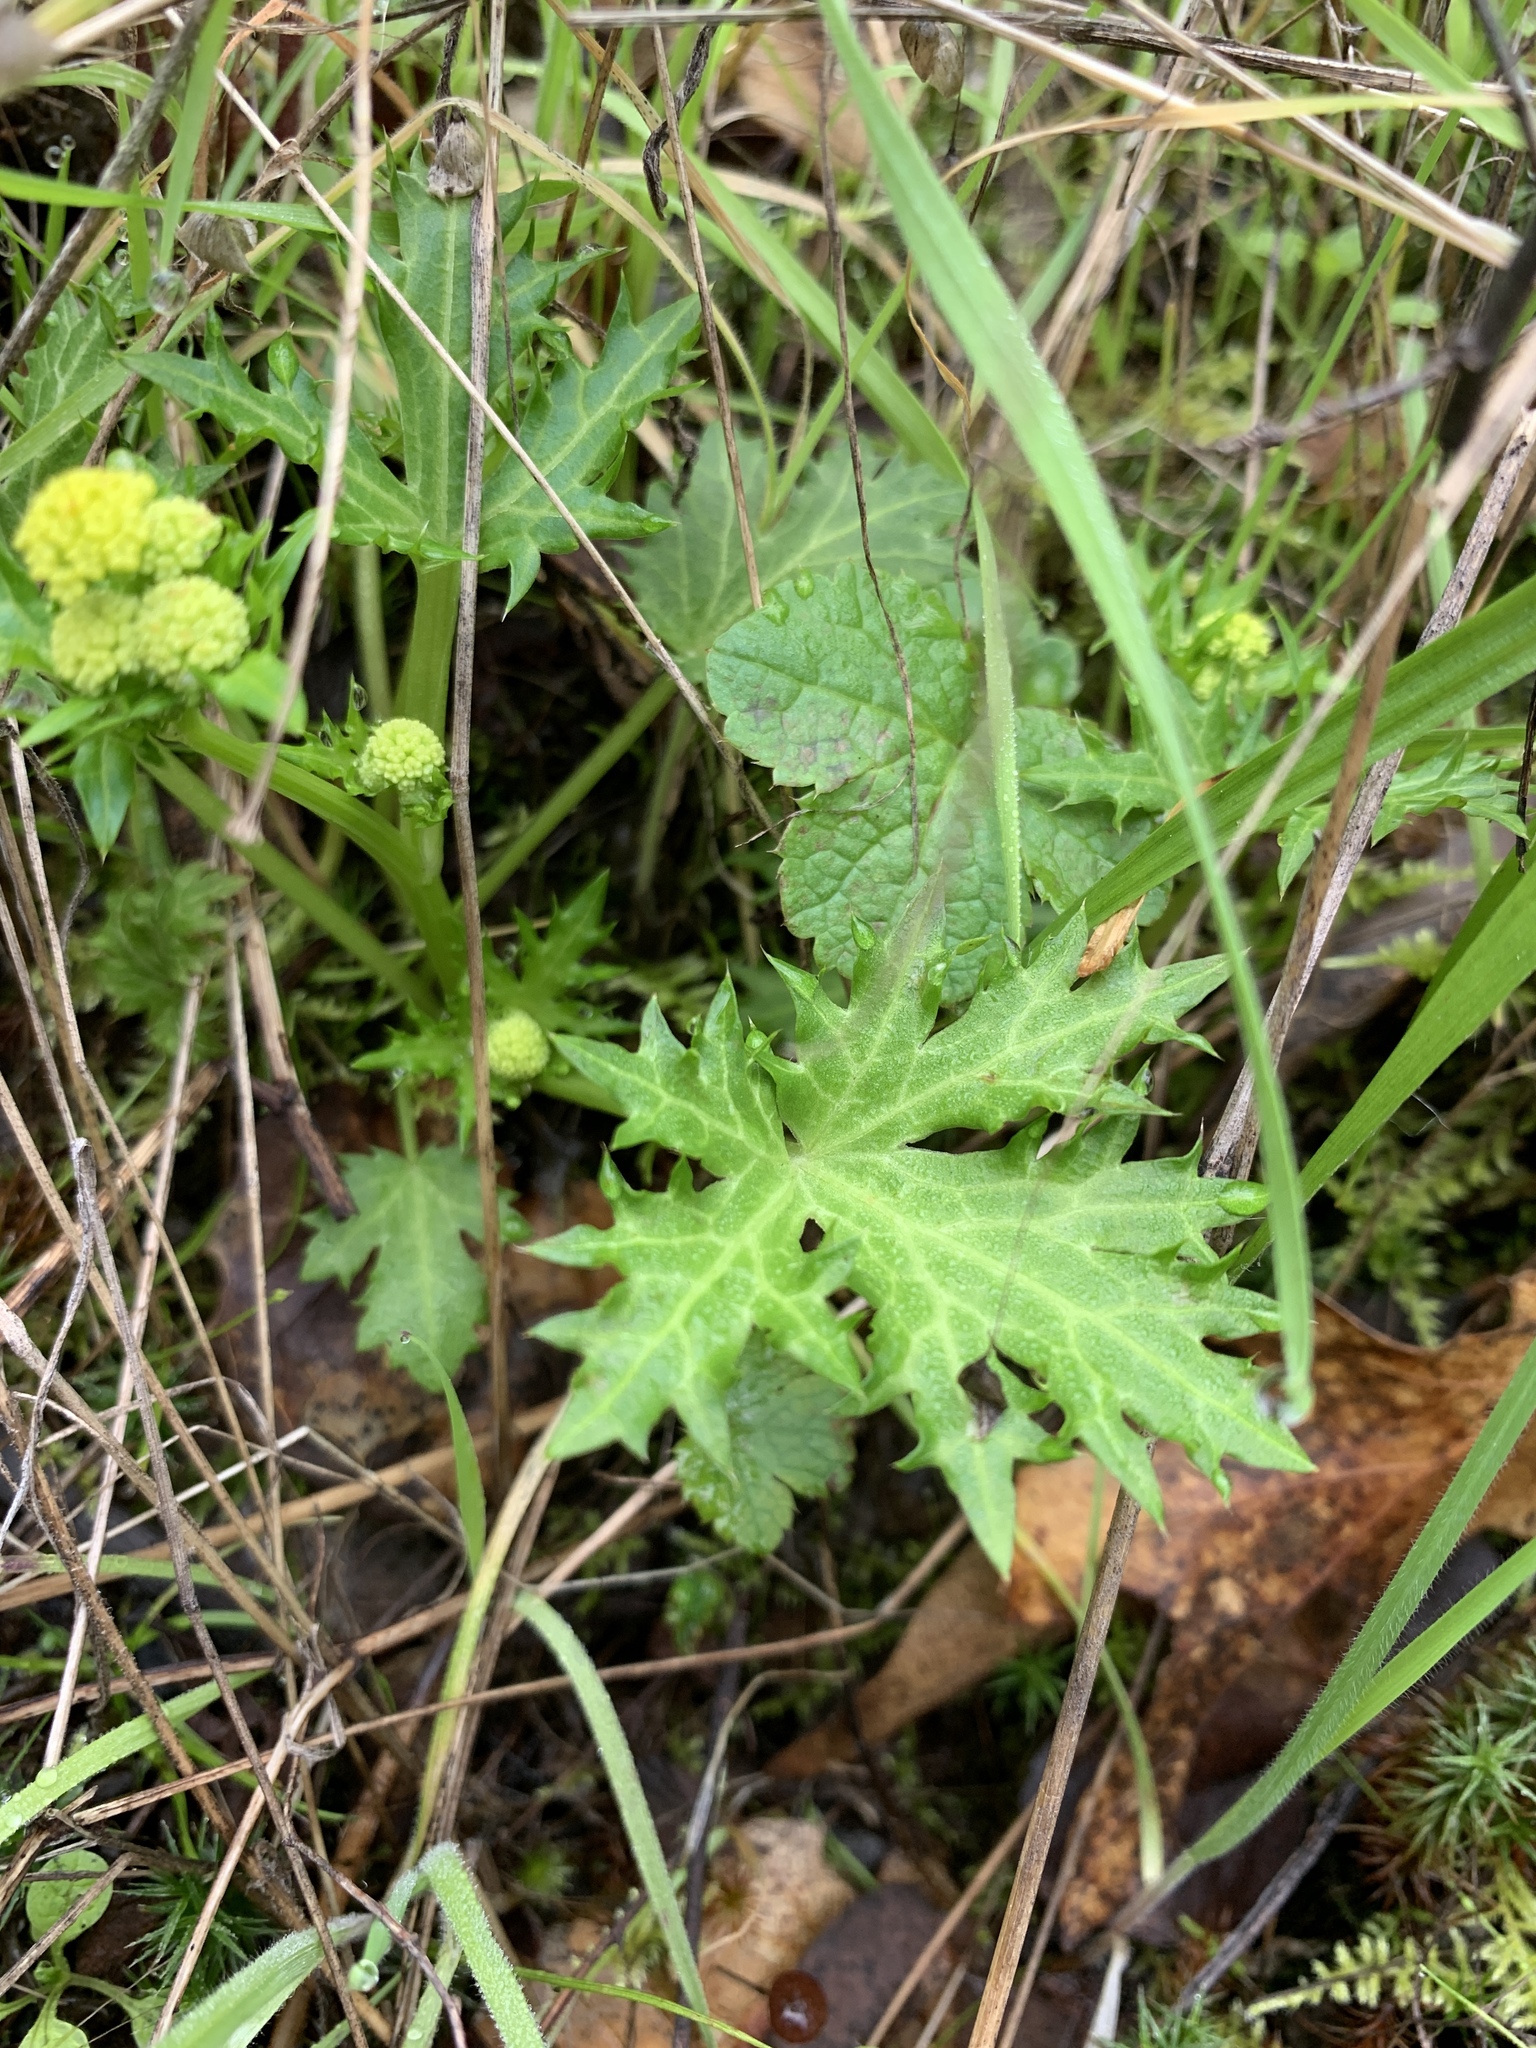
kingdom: Plantae
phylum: Tracheophyta
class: Magnoliopsida
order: Apiales
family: Apiaceae
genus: Sanicula
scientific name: Sanicula laciniata
